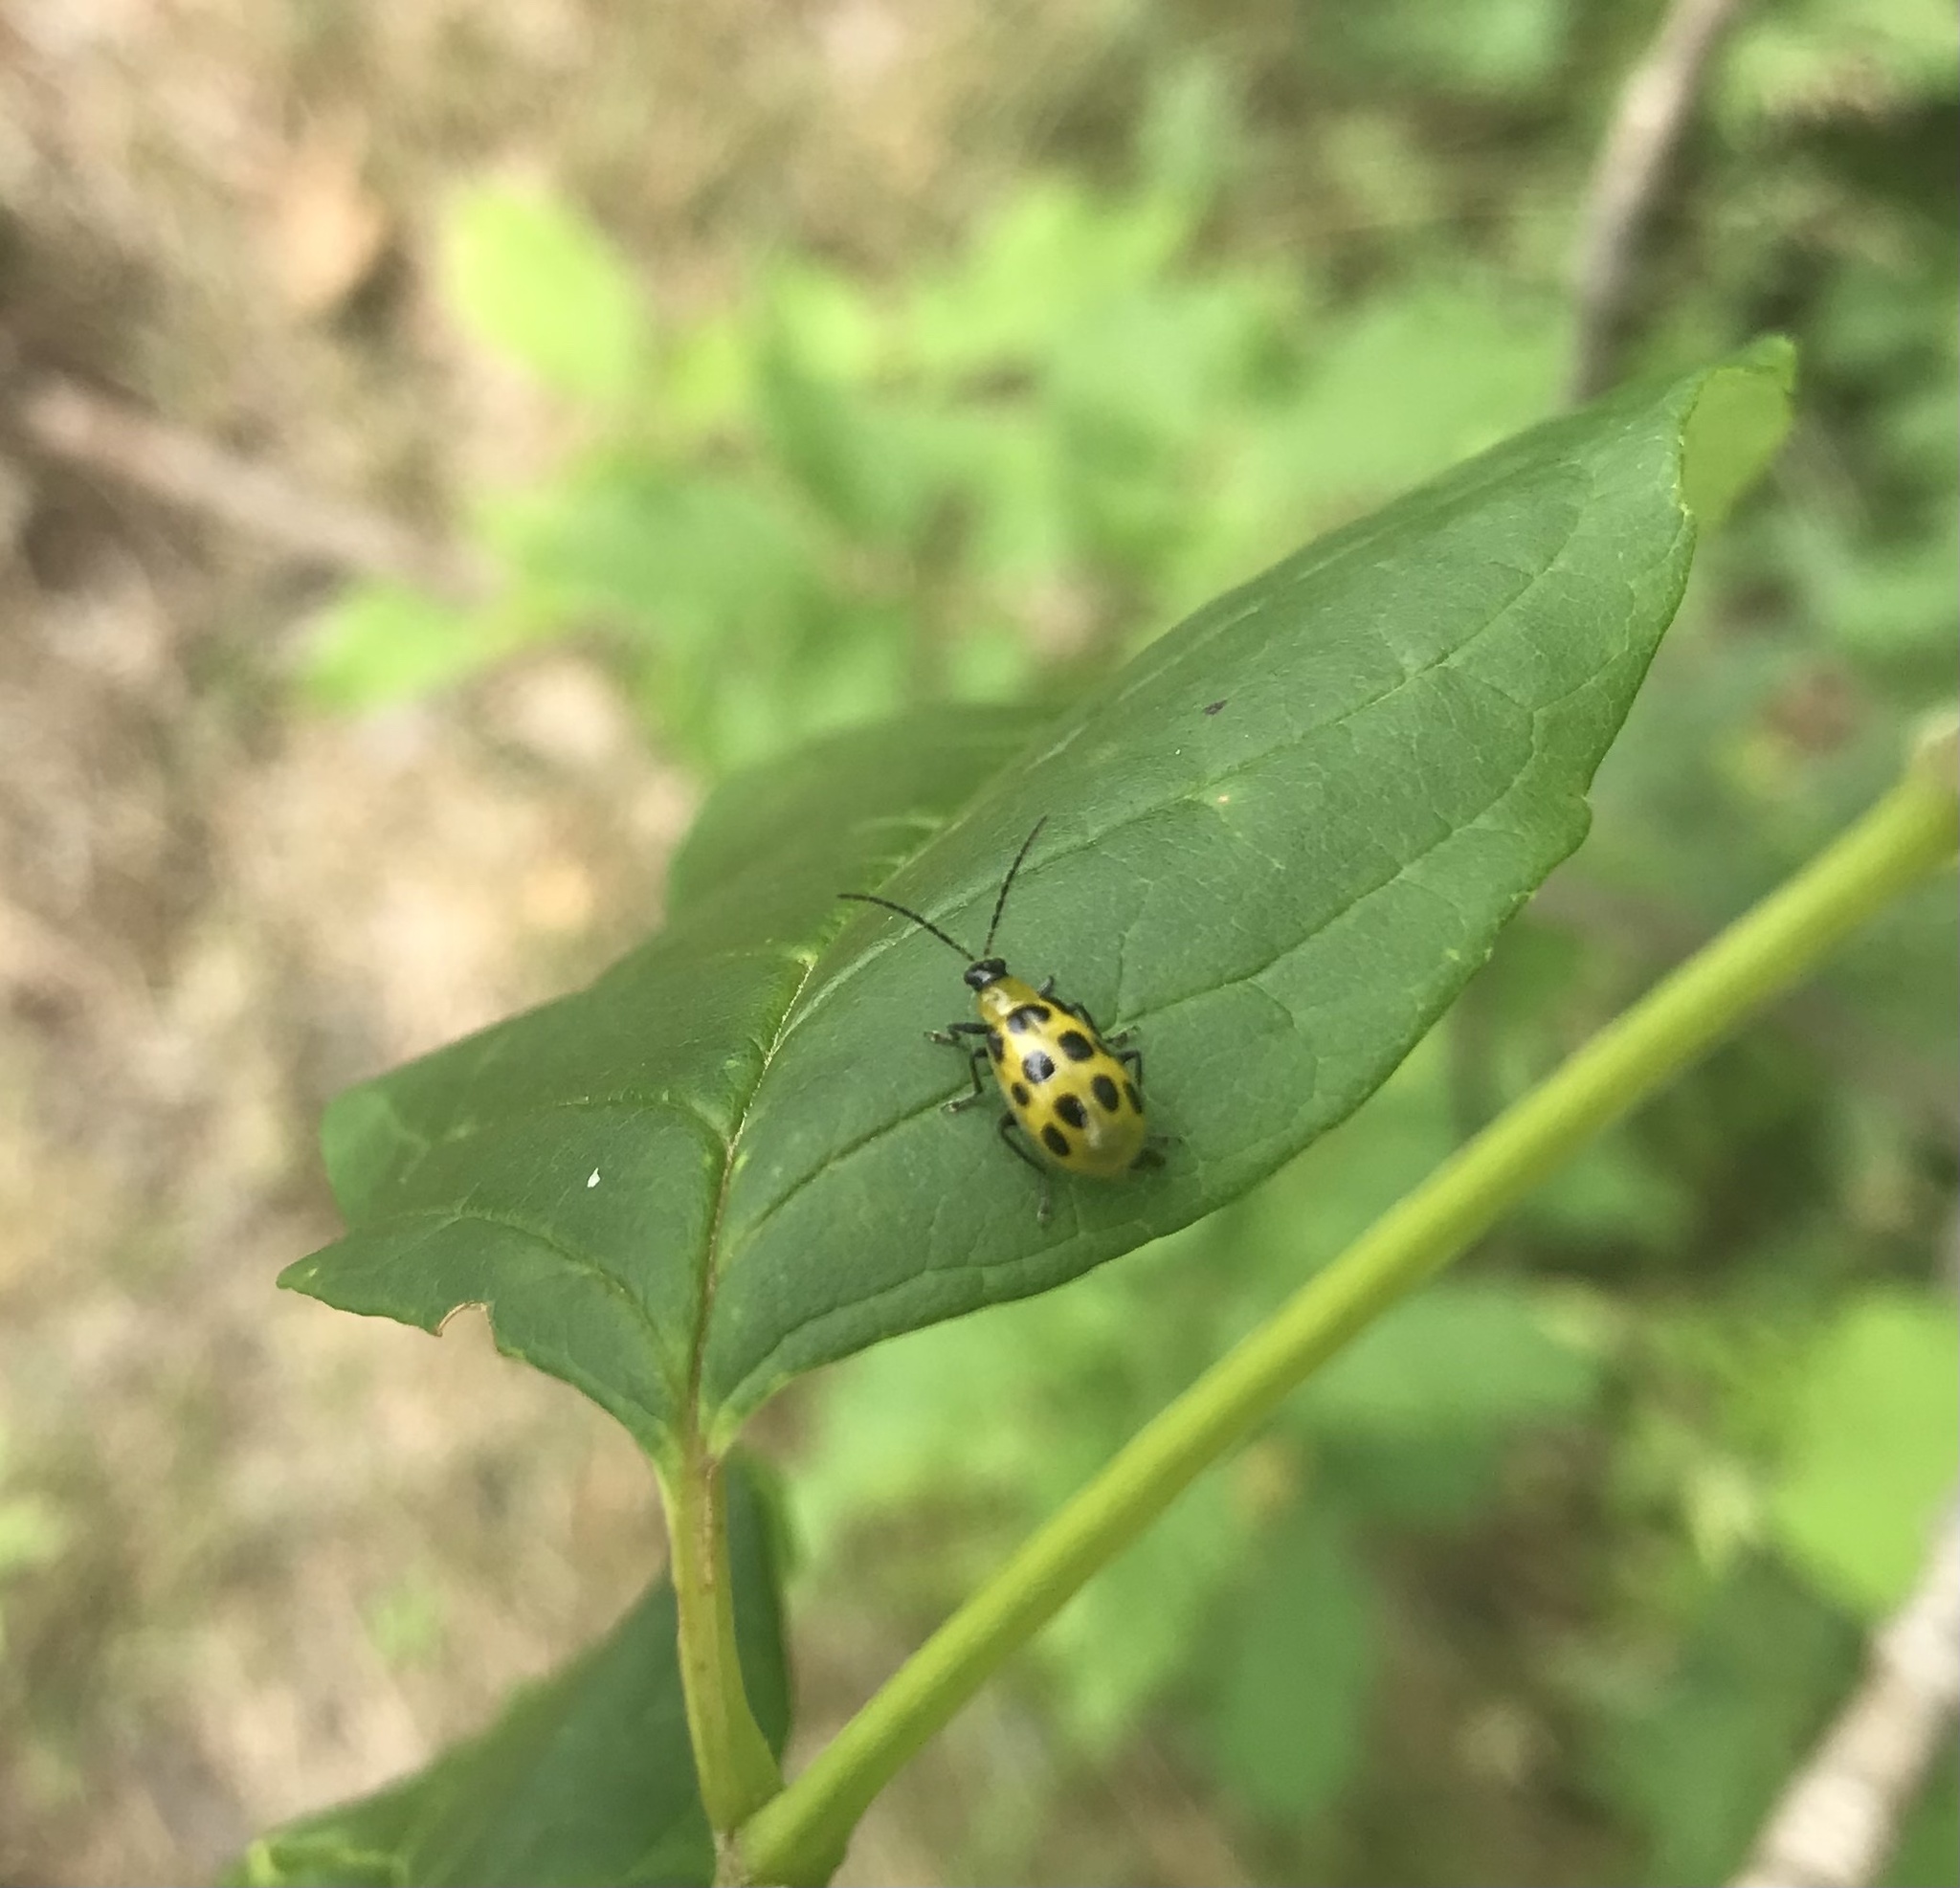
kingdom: Animalia
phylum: Arthropoda
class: Insecta
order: Coleoptera
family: Chrysomelidae
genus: Diabrotica
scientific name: Diabrotica undecimpunctata
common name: Spotted cucumber beetle
